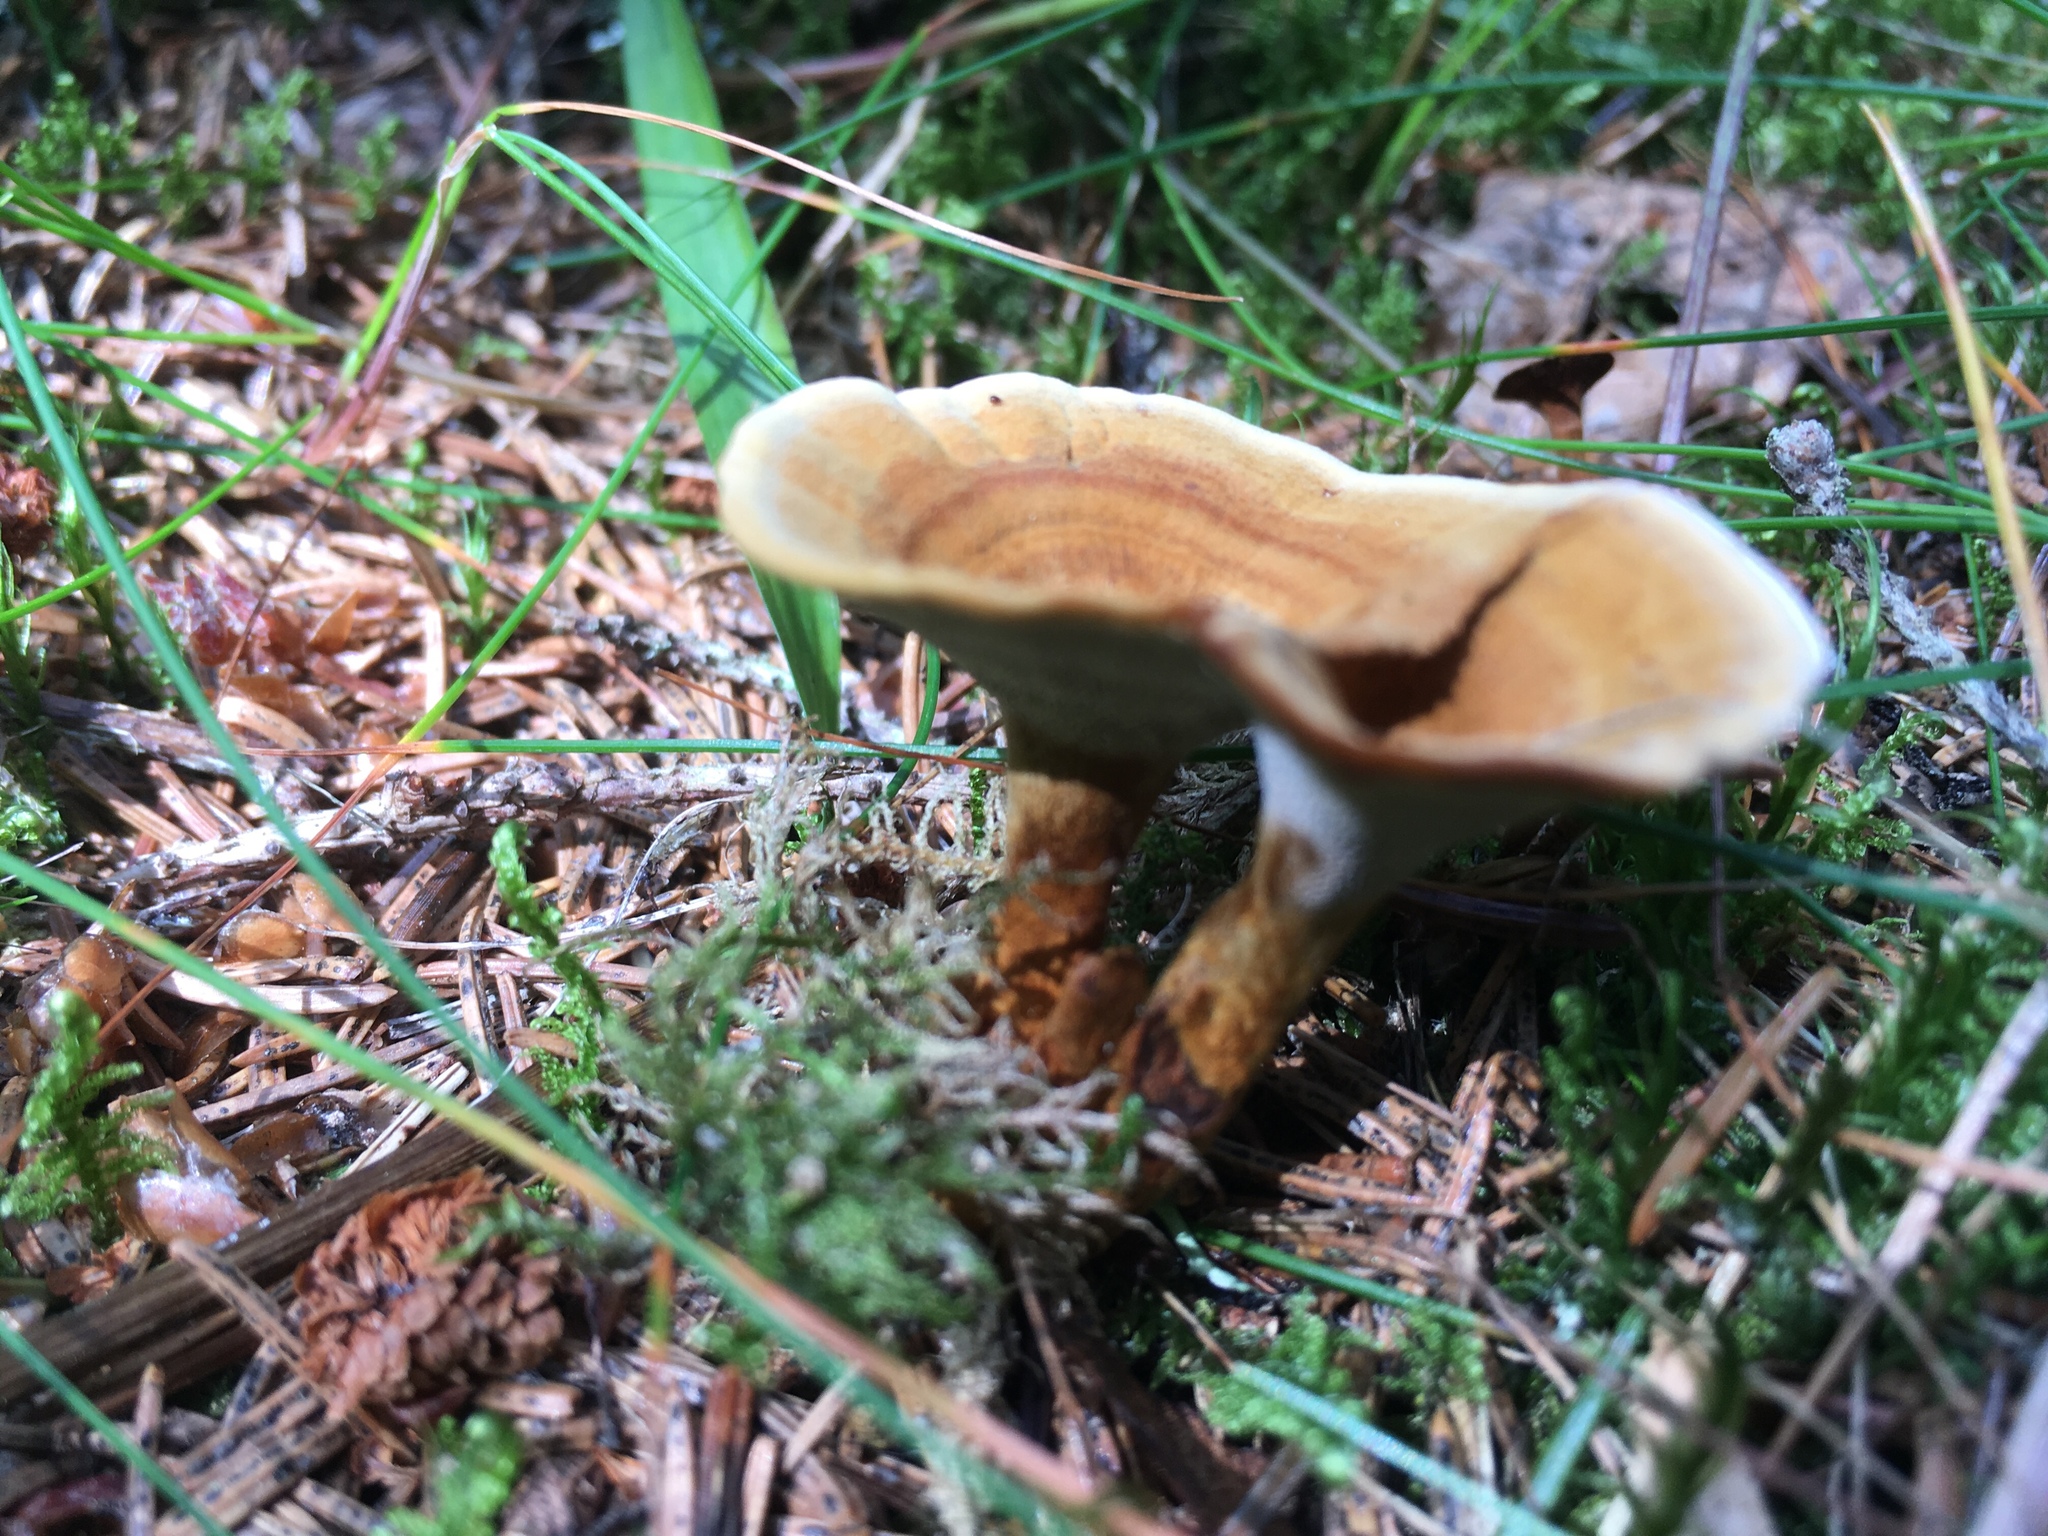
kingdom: Fungi
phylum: Basidiomycota
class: Agaricomycetes
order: Hymenochaetales
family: Hymenochaetaceae
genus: Coltricia
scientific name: Coltricia perennis
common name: Tiger's eye
